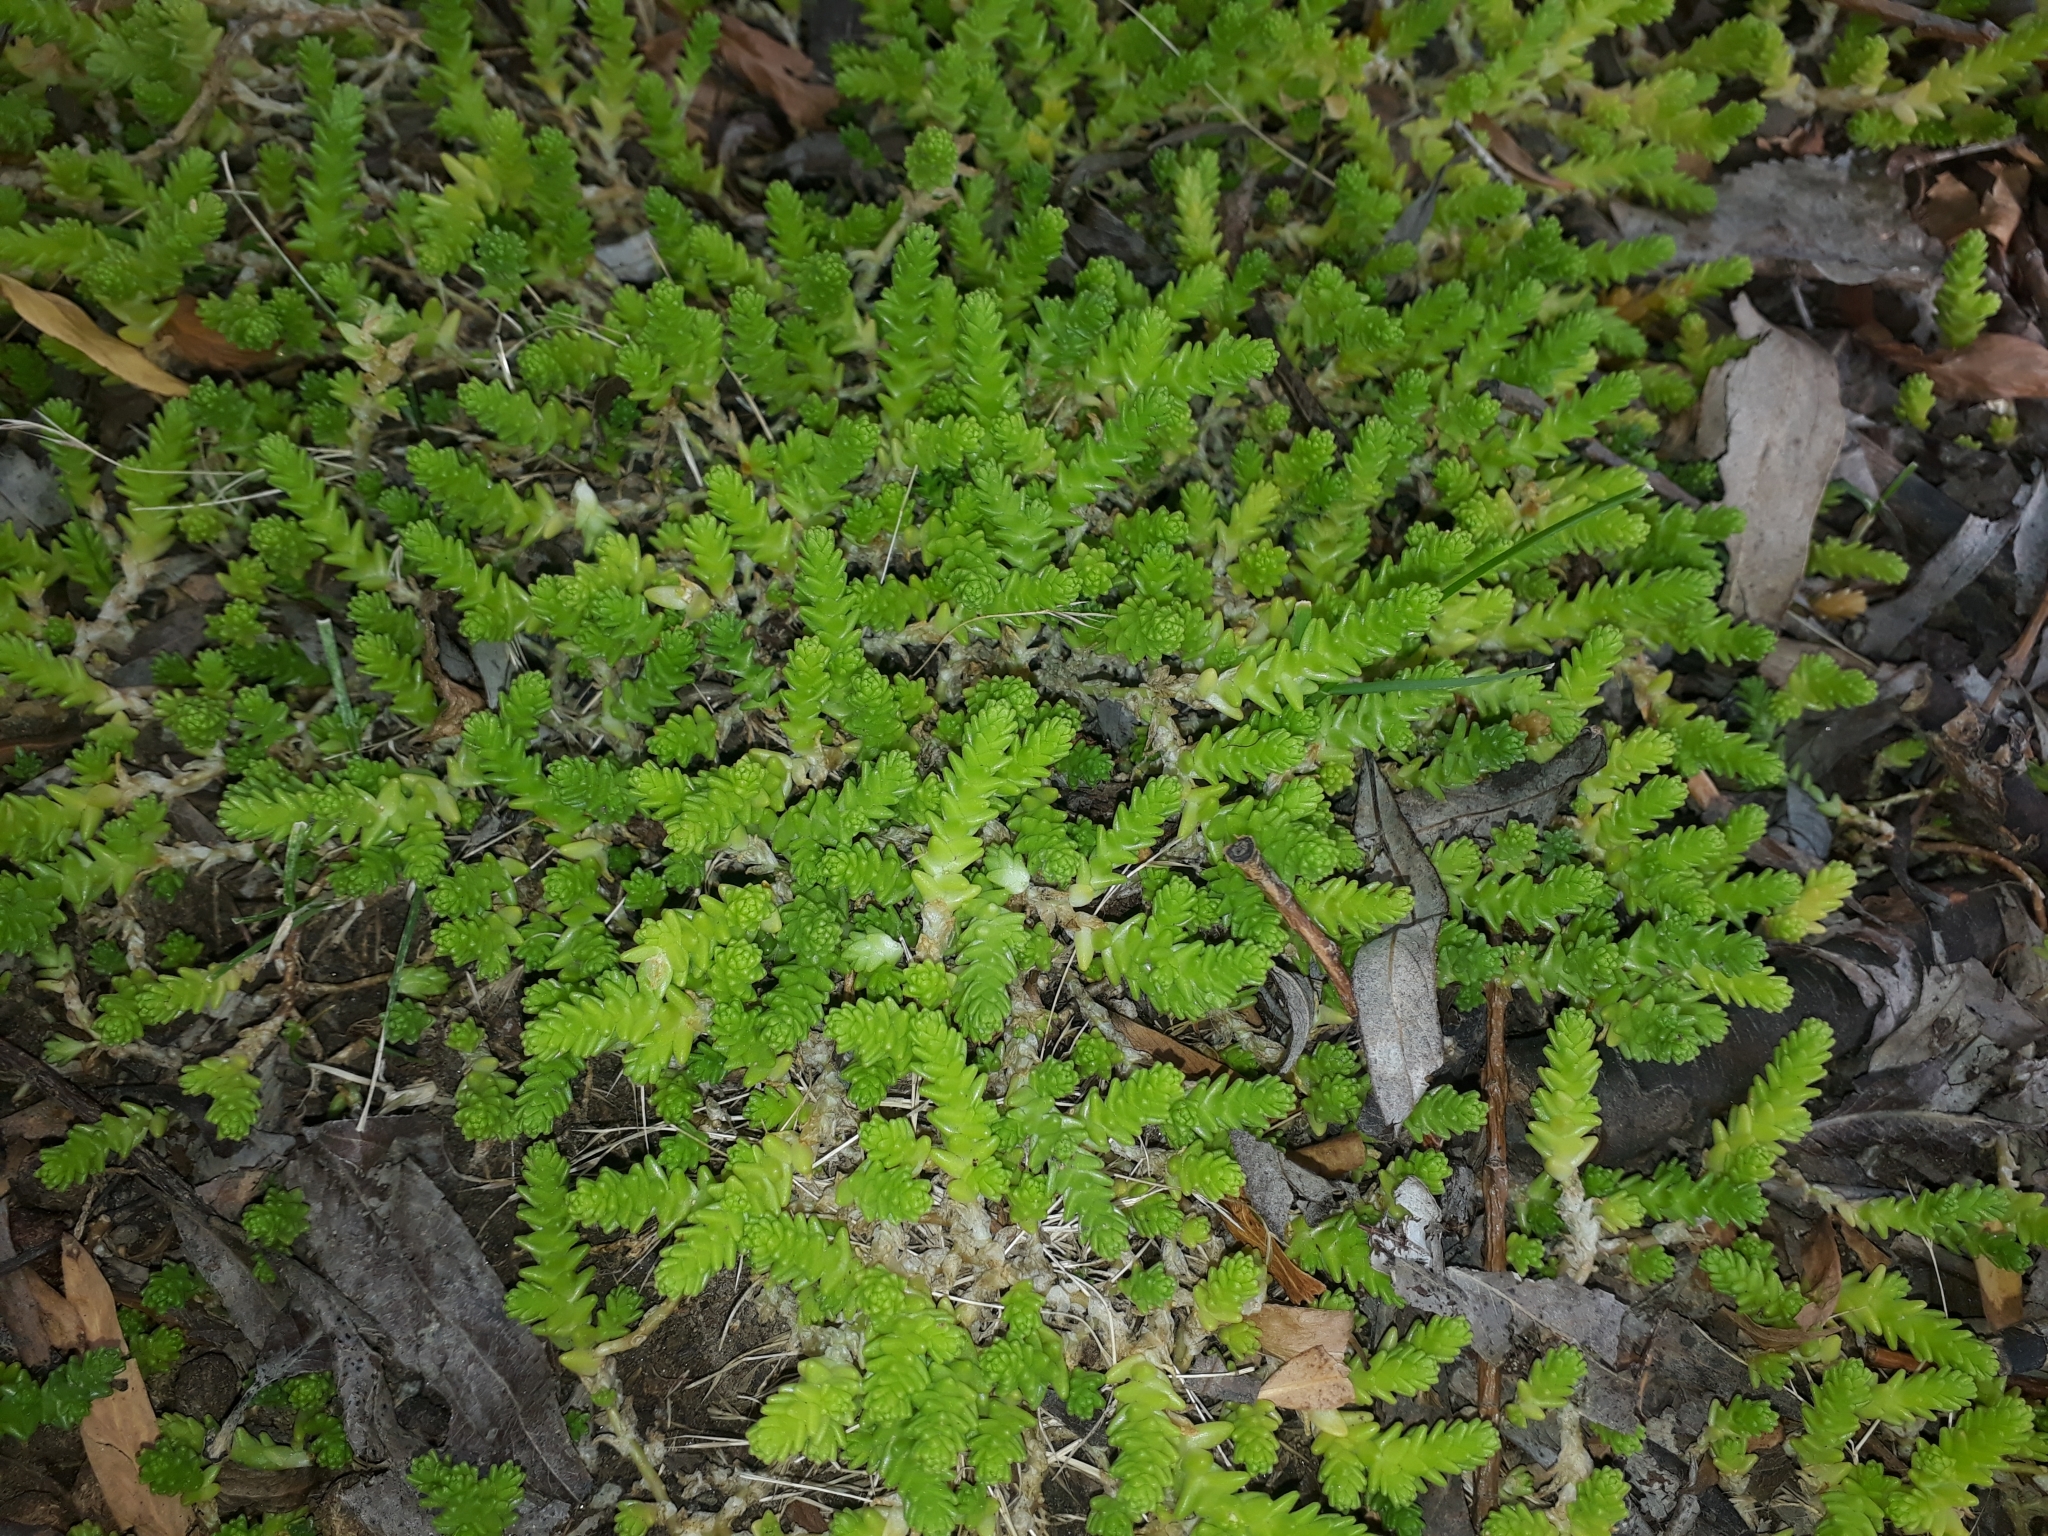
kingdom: Plantae
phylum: Tracheophyta
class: Magnoliopsida
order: Saxifragales
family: Crassulaceae
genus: Sedum
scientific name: Sedum acre
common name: Biting stonecrop
